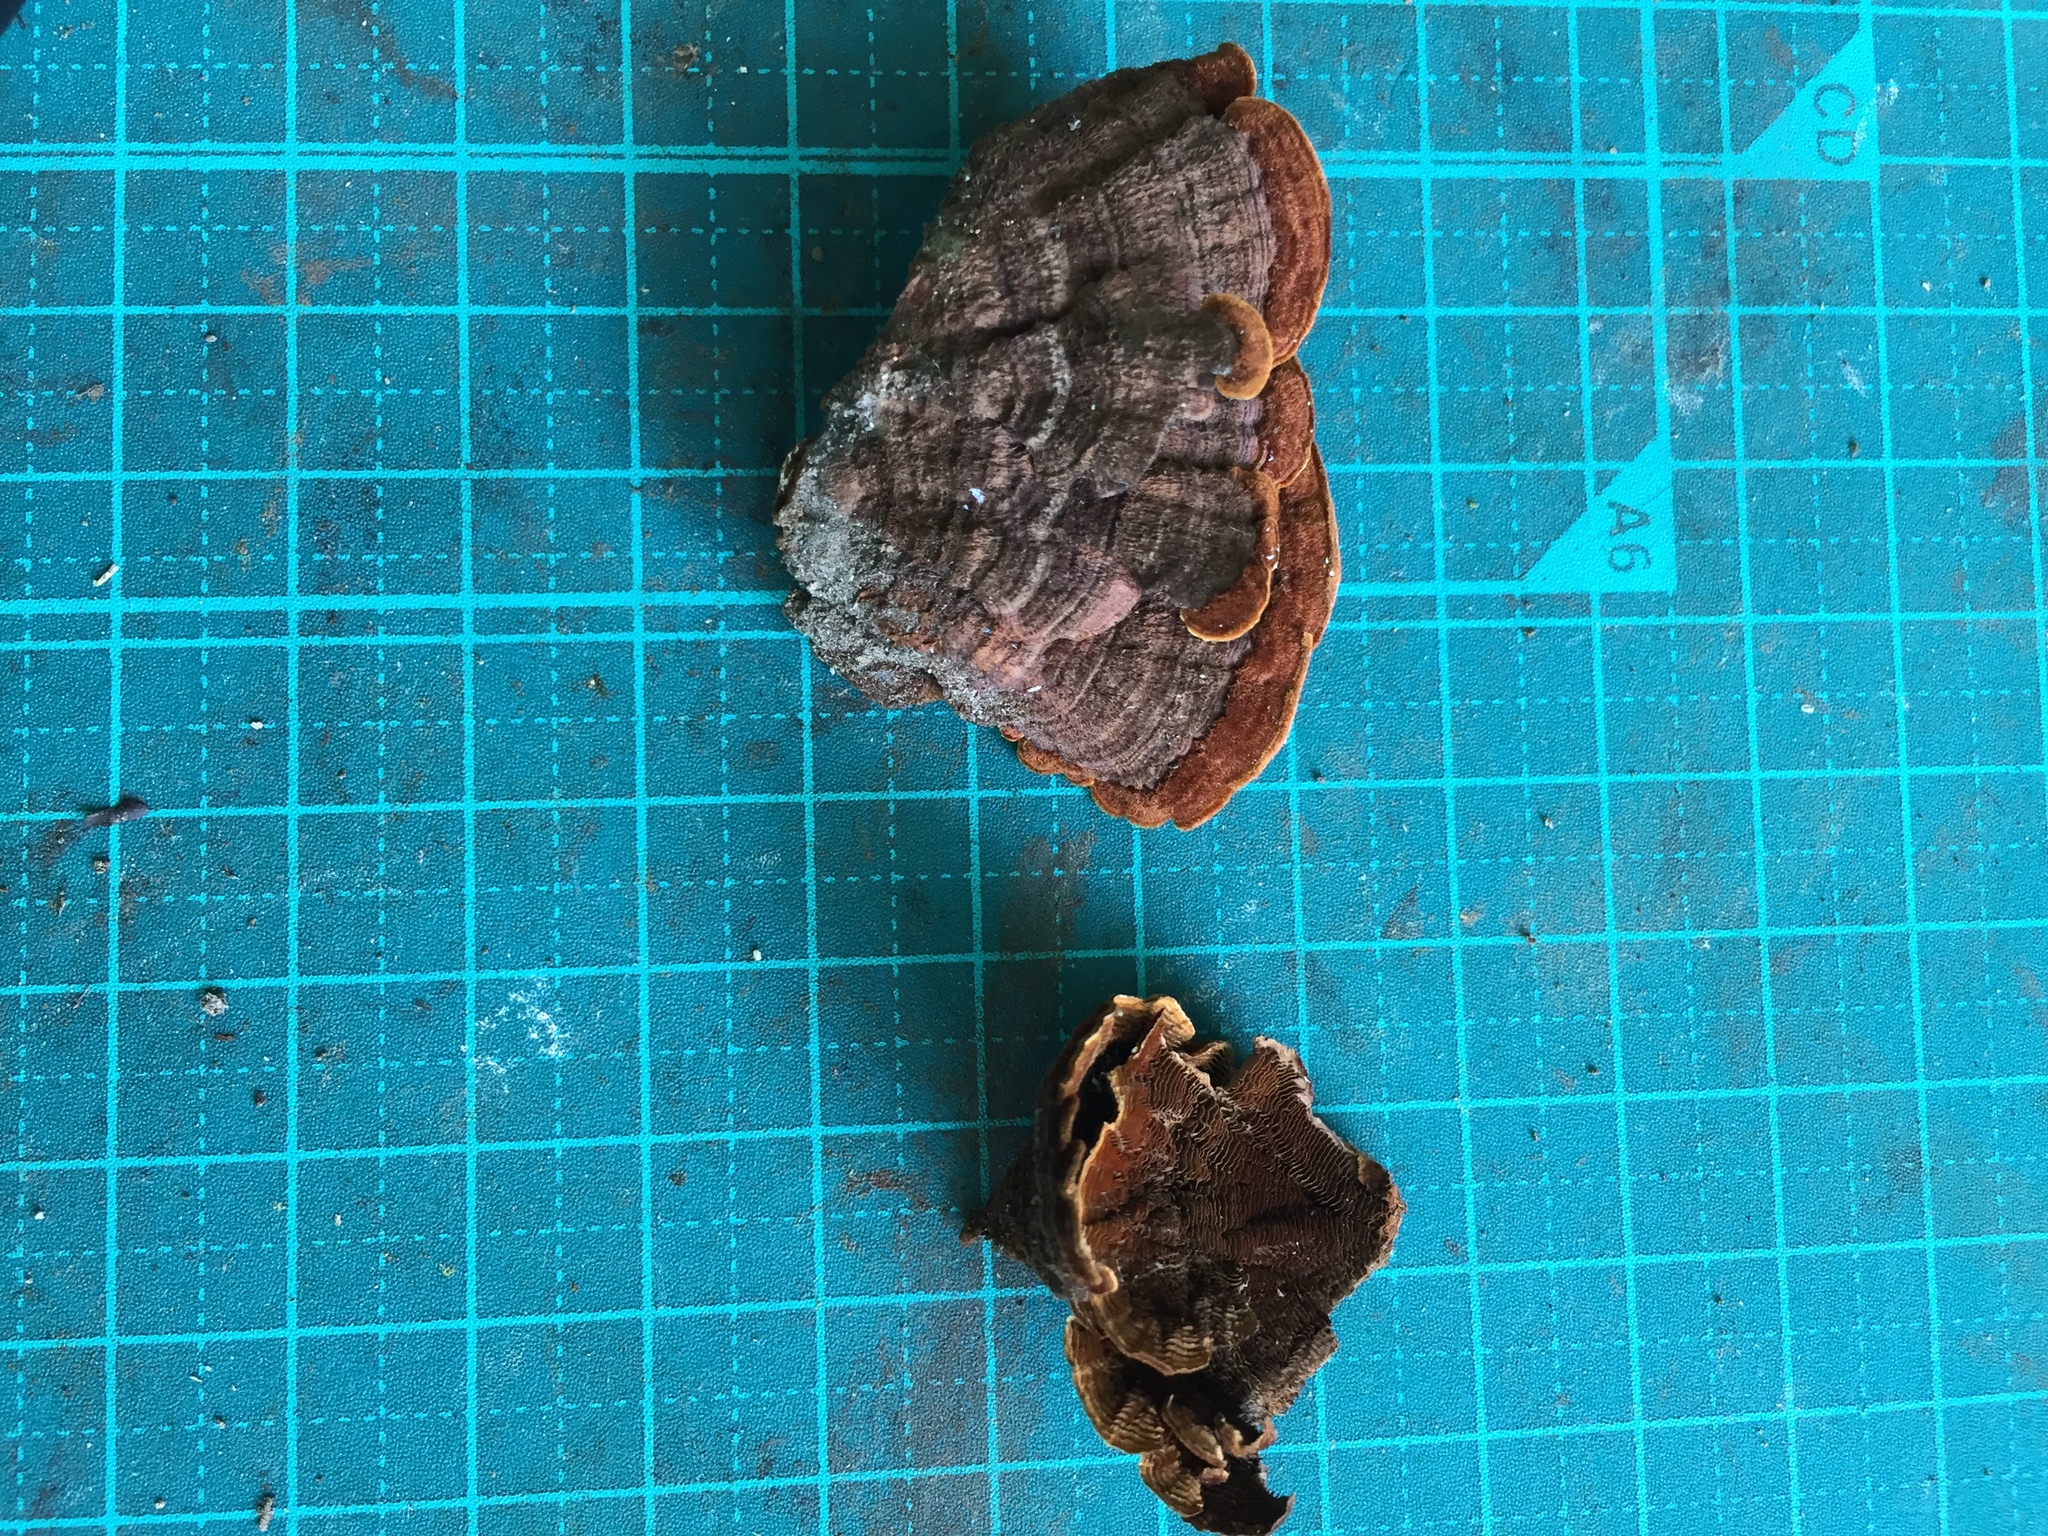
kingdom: Fungi
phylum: Basidiomycota
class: Agaricomycetes
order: Hymenochaetales
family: Hymenochaetaceae
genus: Hymenochaete
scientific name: Hymenochaete cyclolamellata
